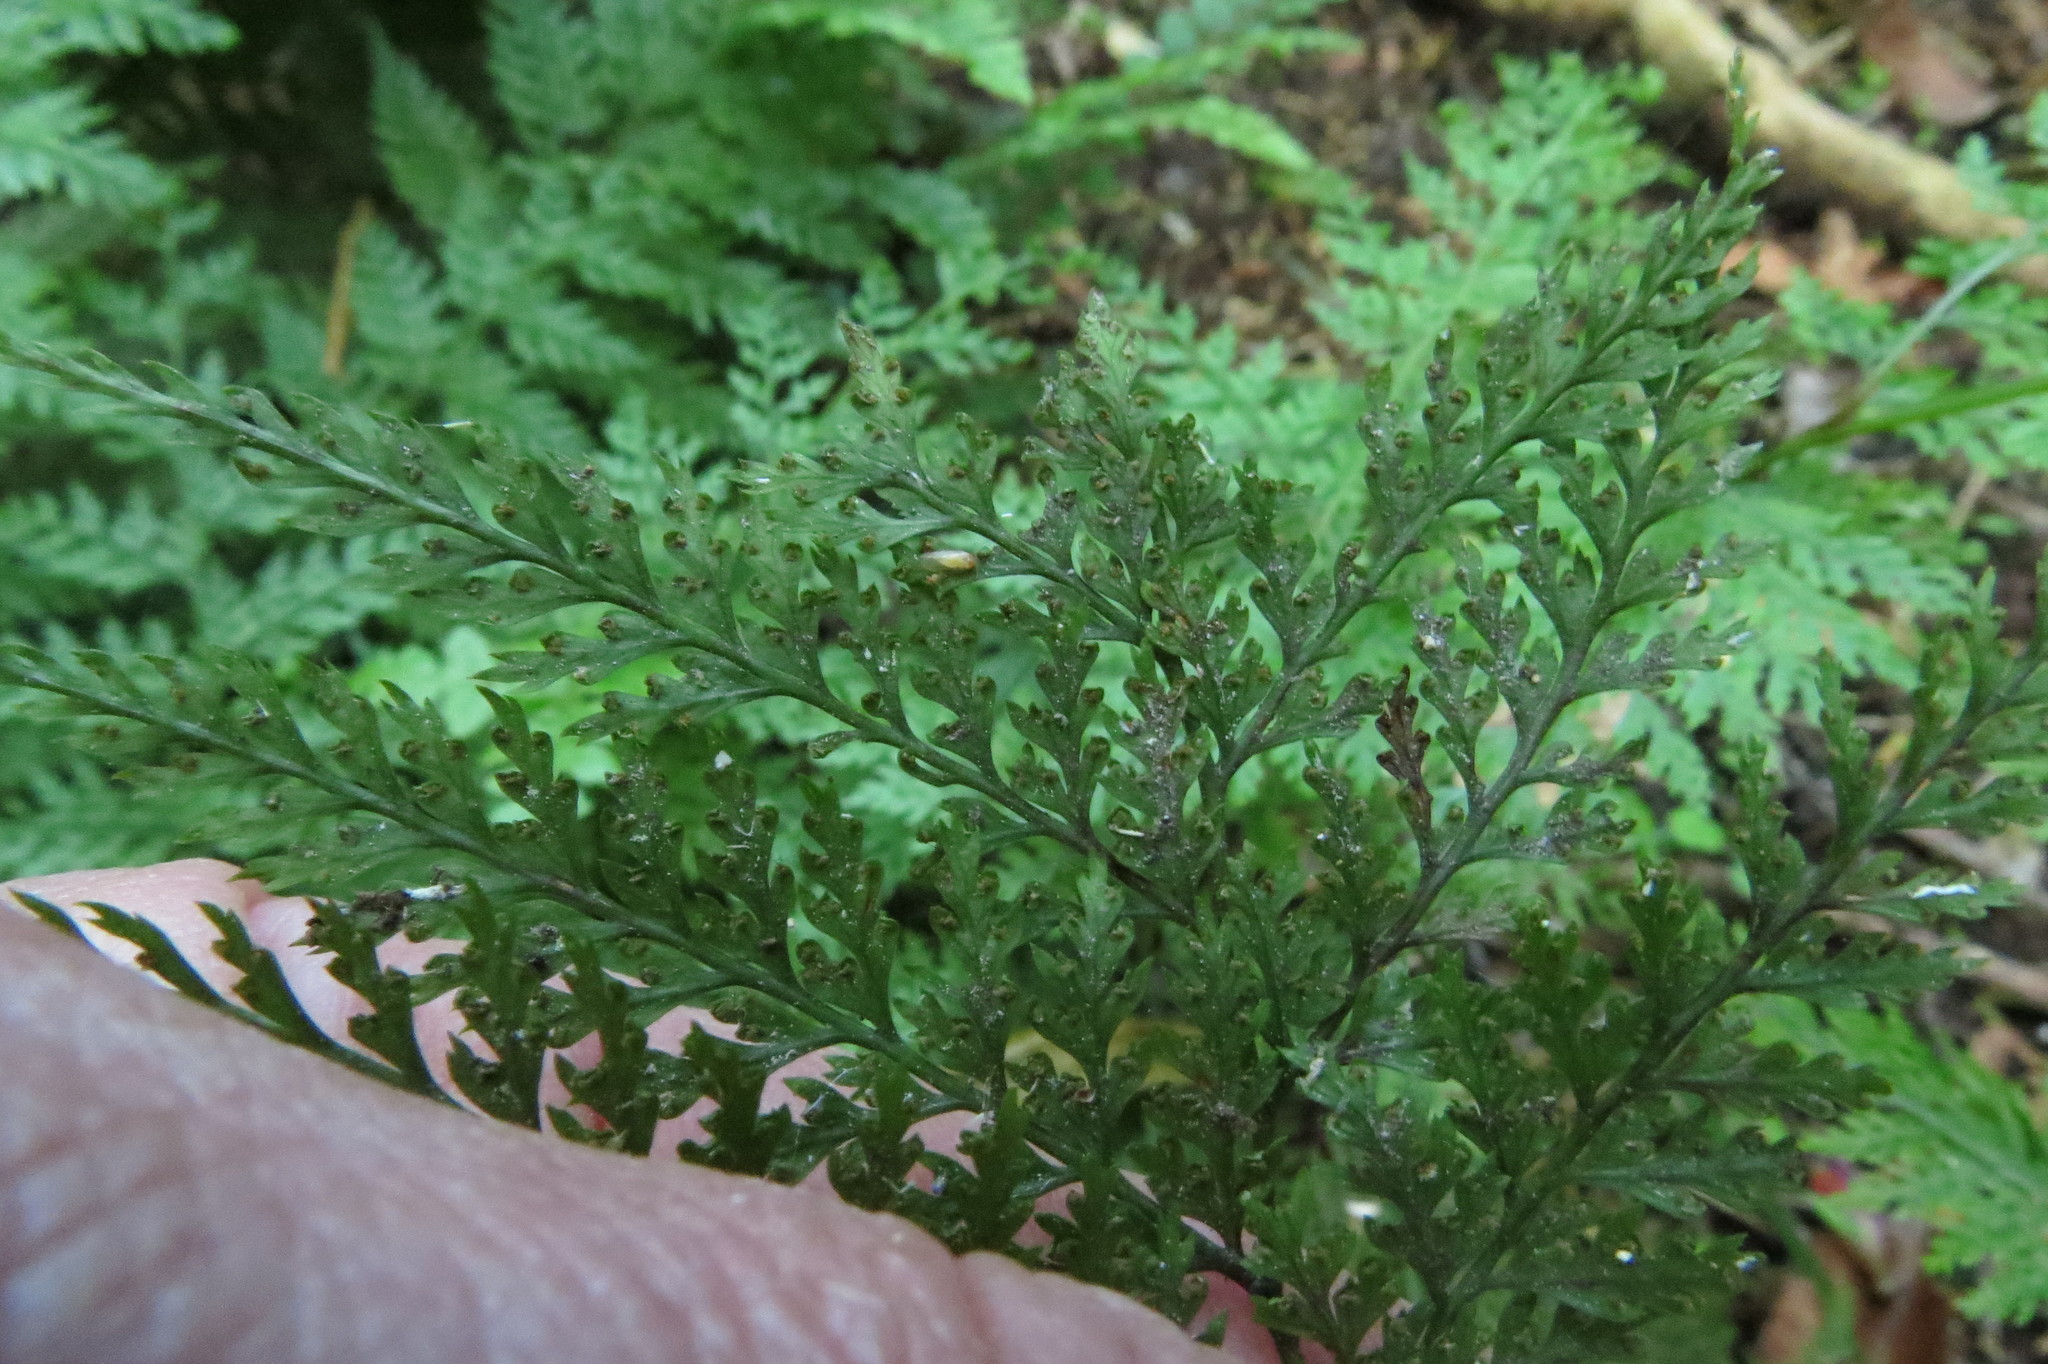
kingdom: Plantae
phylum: Tracheophyta
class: Polypodiopsida
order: Polypodiales
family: Dennstaedtiaceae
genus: Dennstaedtia
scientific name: Dennstaedtia novae-zelandiae
